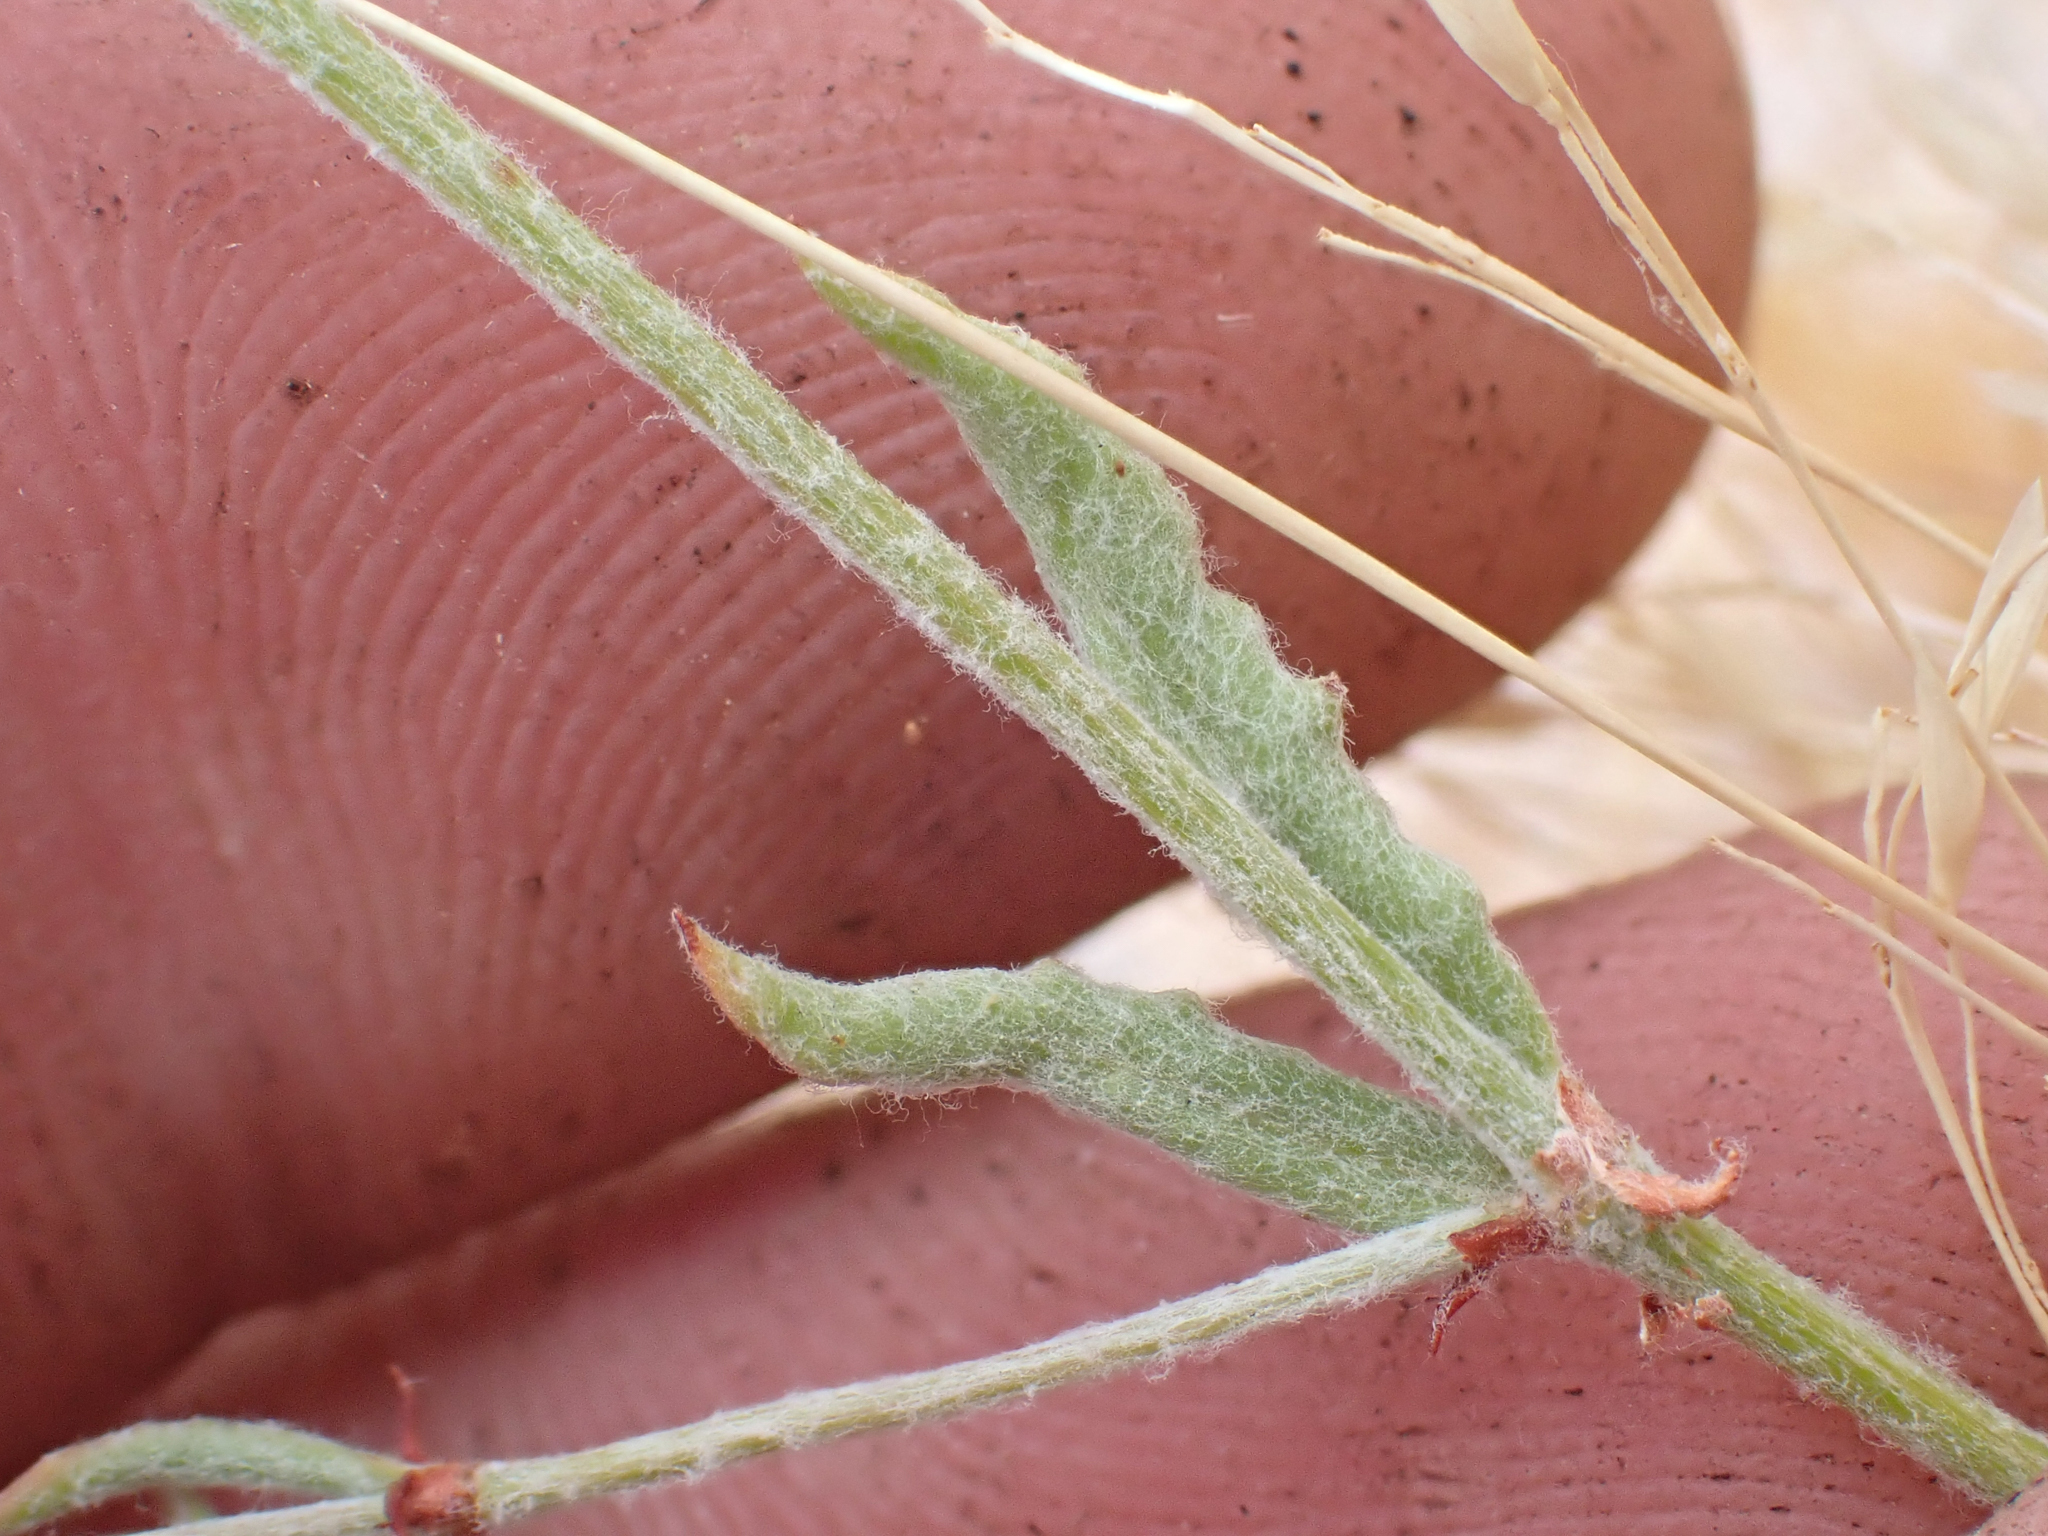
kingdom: Plantae
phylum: Tracheophyta
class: Magnoliopsida
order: Caryophyllales
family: Polygonaceae
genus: Eriogonum
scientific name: Eriogonum gracillimum
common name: Rose-and-white wild buckwheat
